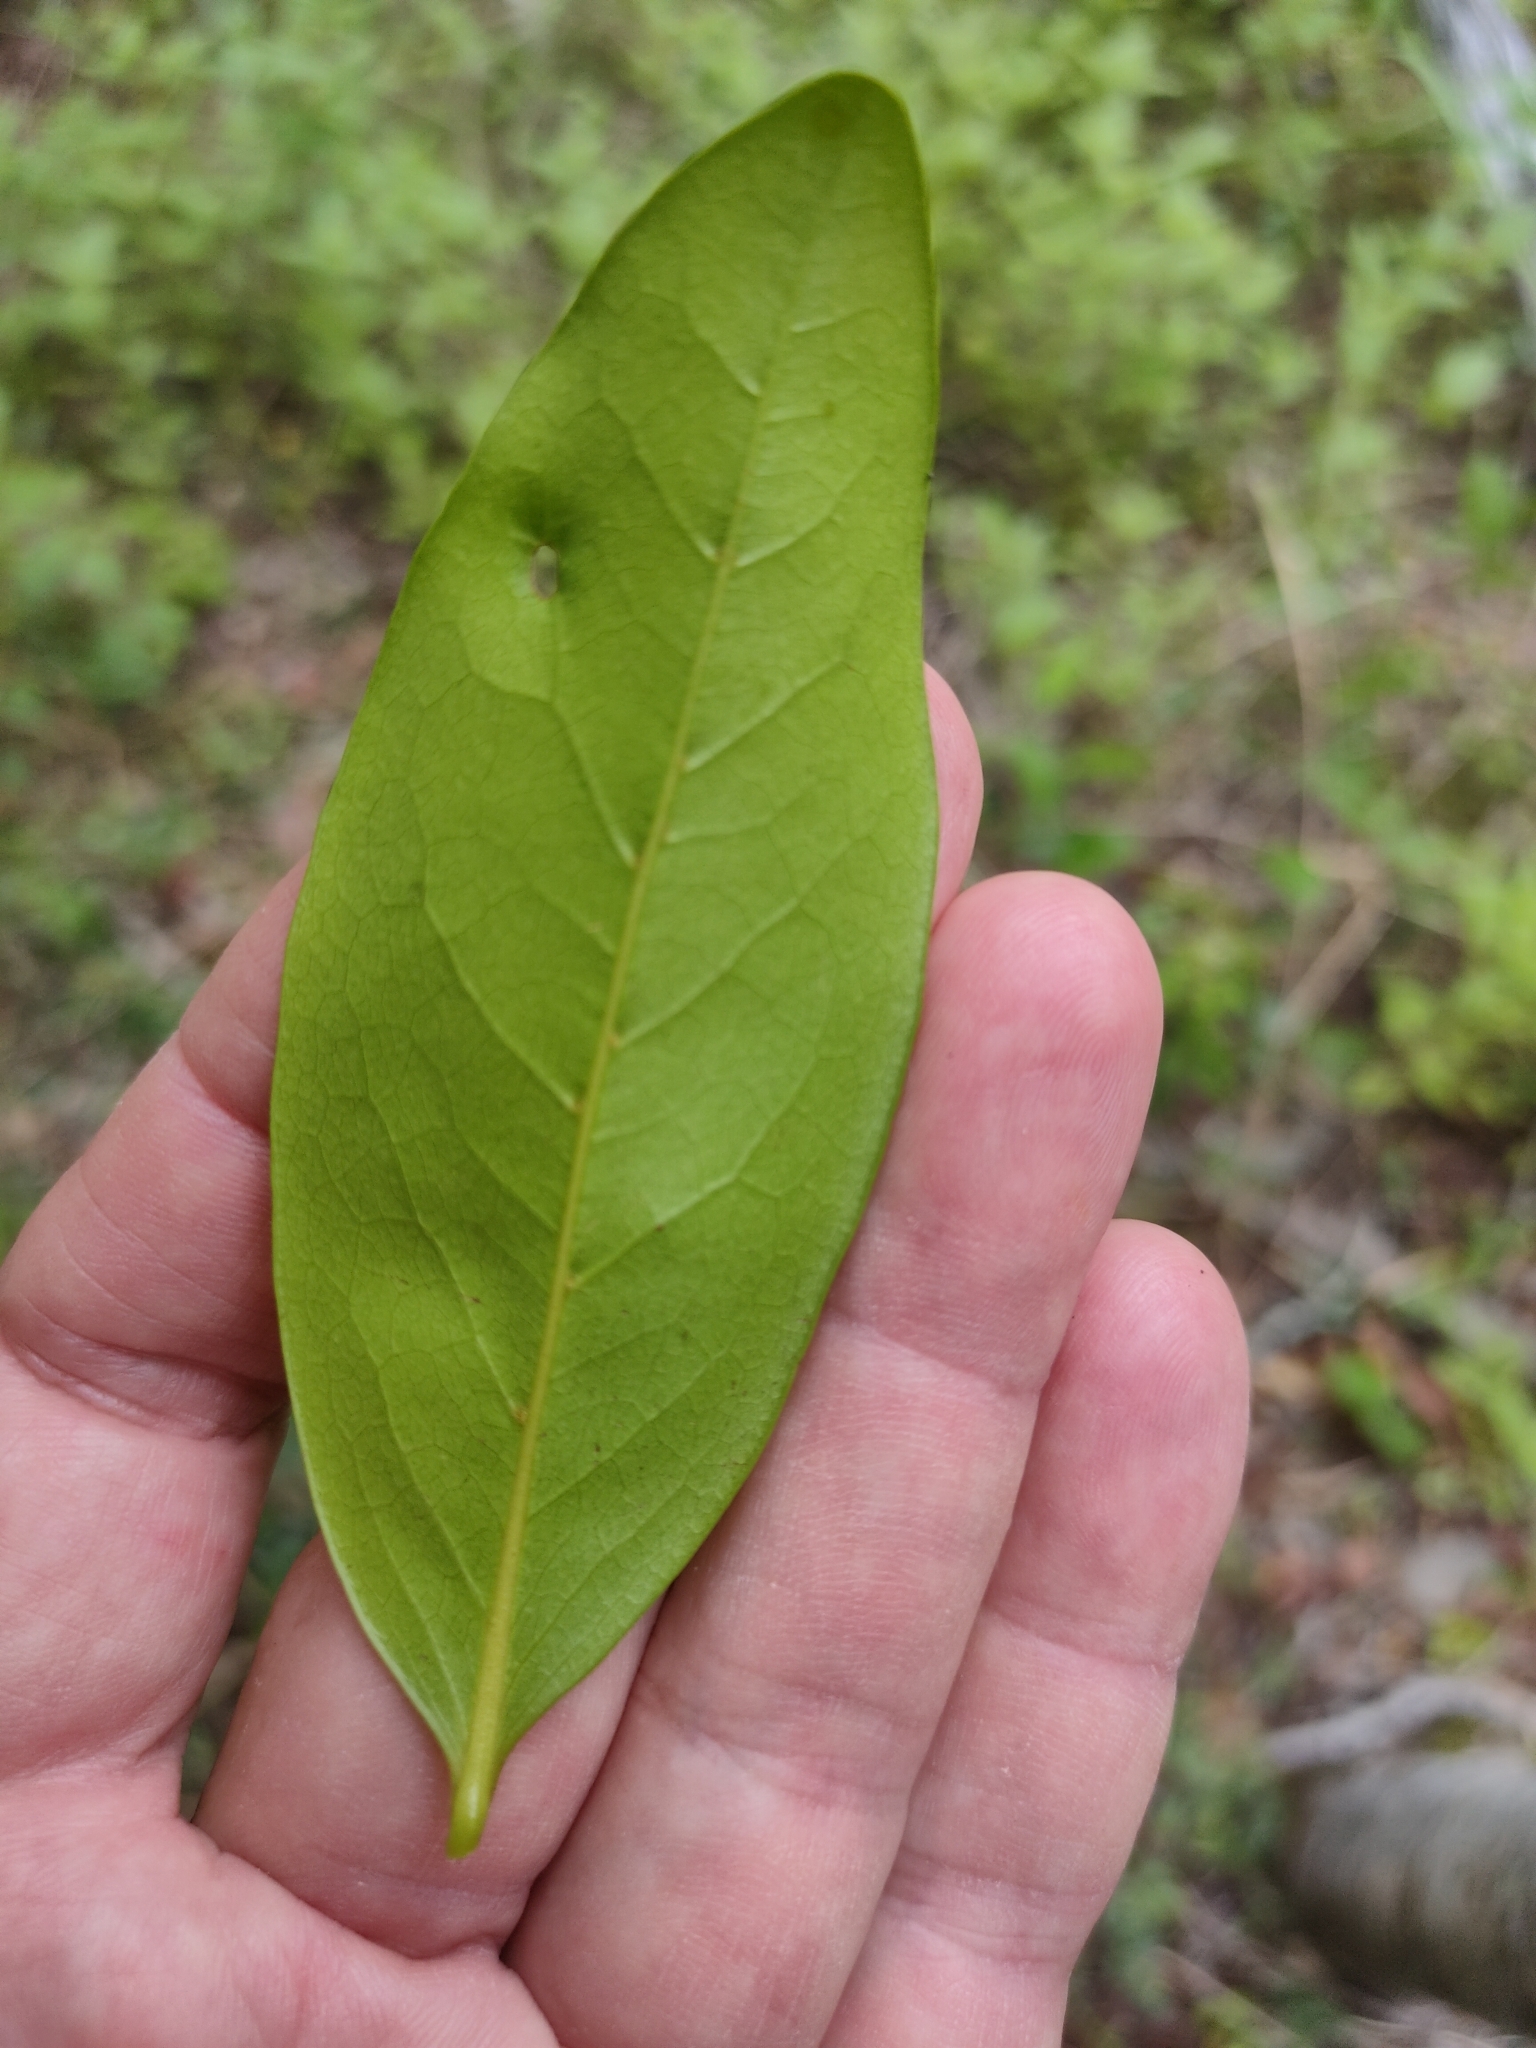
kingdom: Plantae
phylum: Tracheophyta
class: Magnoliopsida
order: Magnoliales
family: Annonaceae
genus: Hubera
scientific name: Hubera nitidissima
